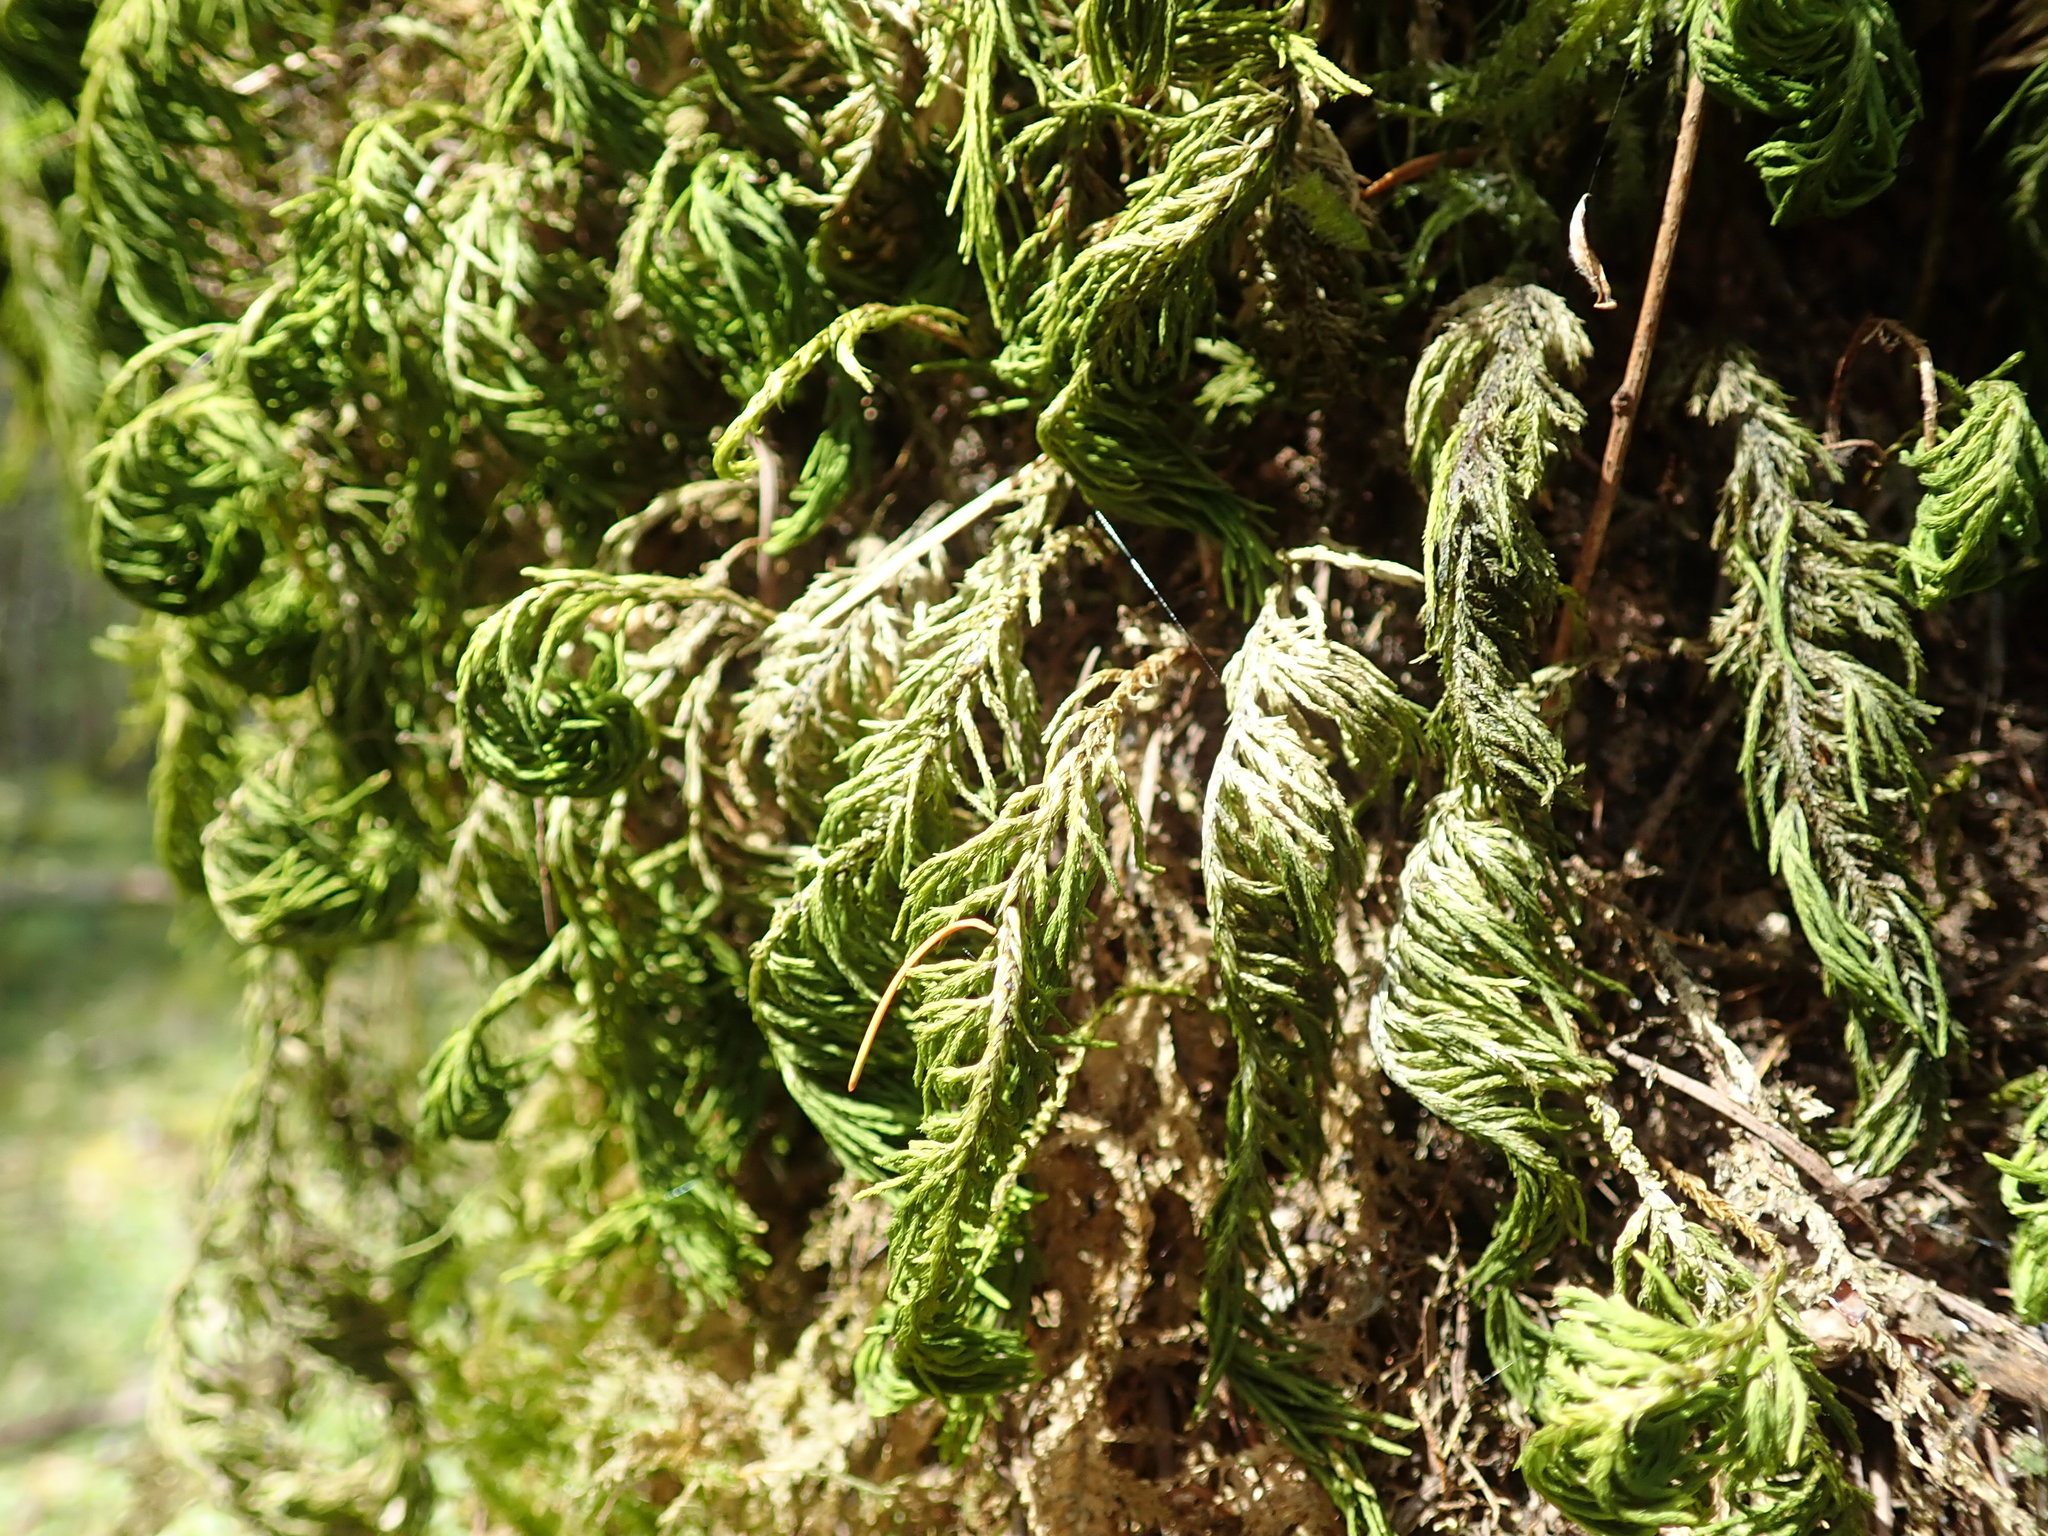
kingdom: Plantae
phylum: Bryophyta
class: Bryopsida
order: Hypnales
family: Cryphaeaceae
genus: Dendroalsia
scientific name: Dendroalsia abietina
